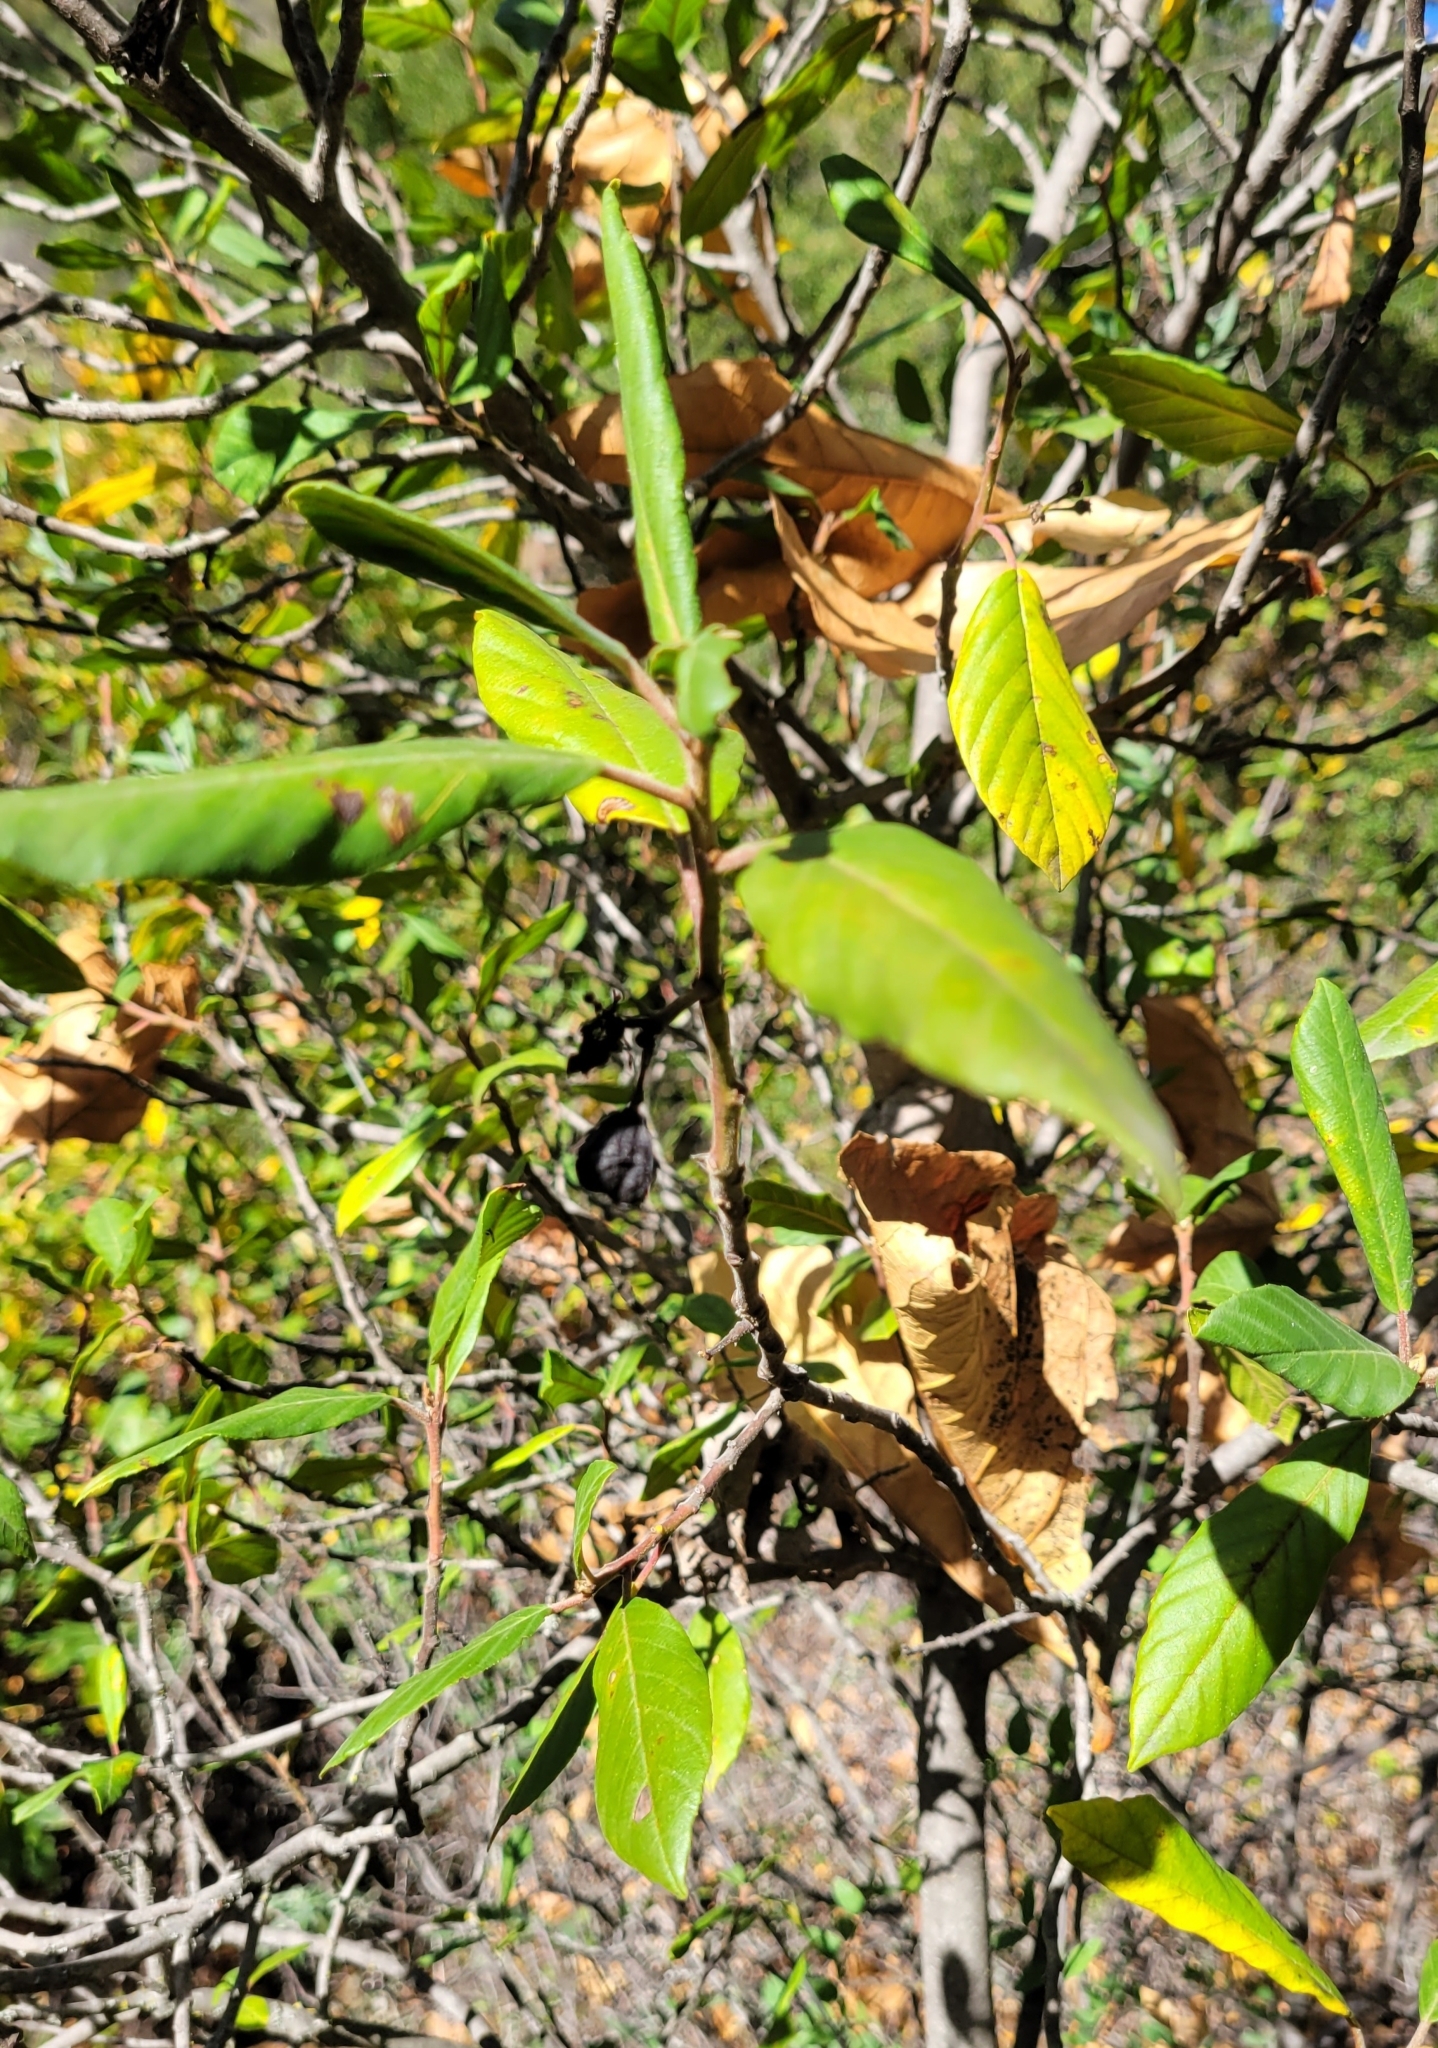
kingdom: Plantae
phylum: Tracheophyta
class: Magnoliopsida
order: Rosales
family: Rhamnaceae
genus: Frangula
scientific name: Frangula californica
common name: California buckthorn
